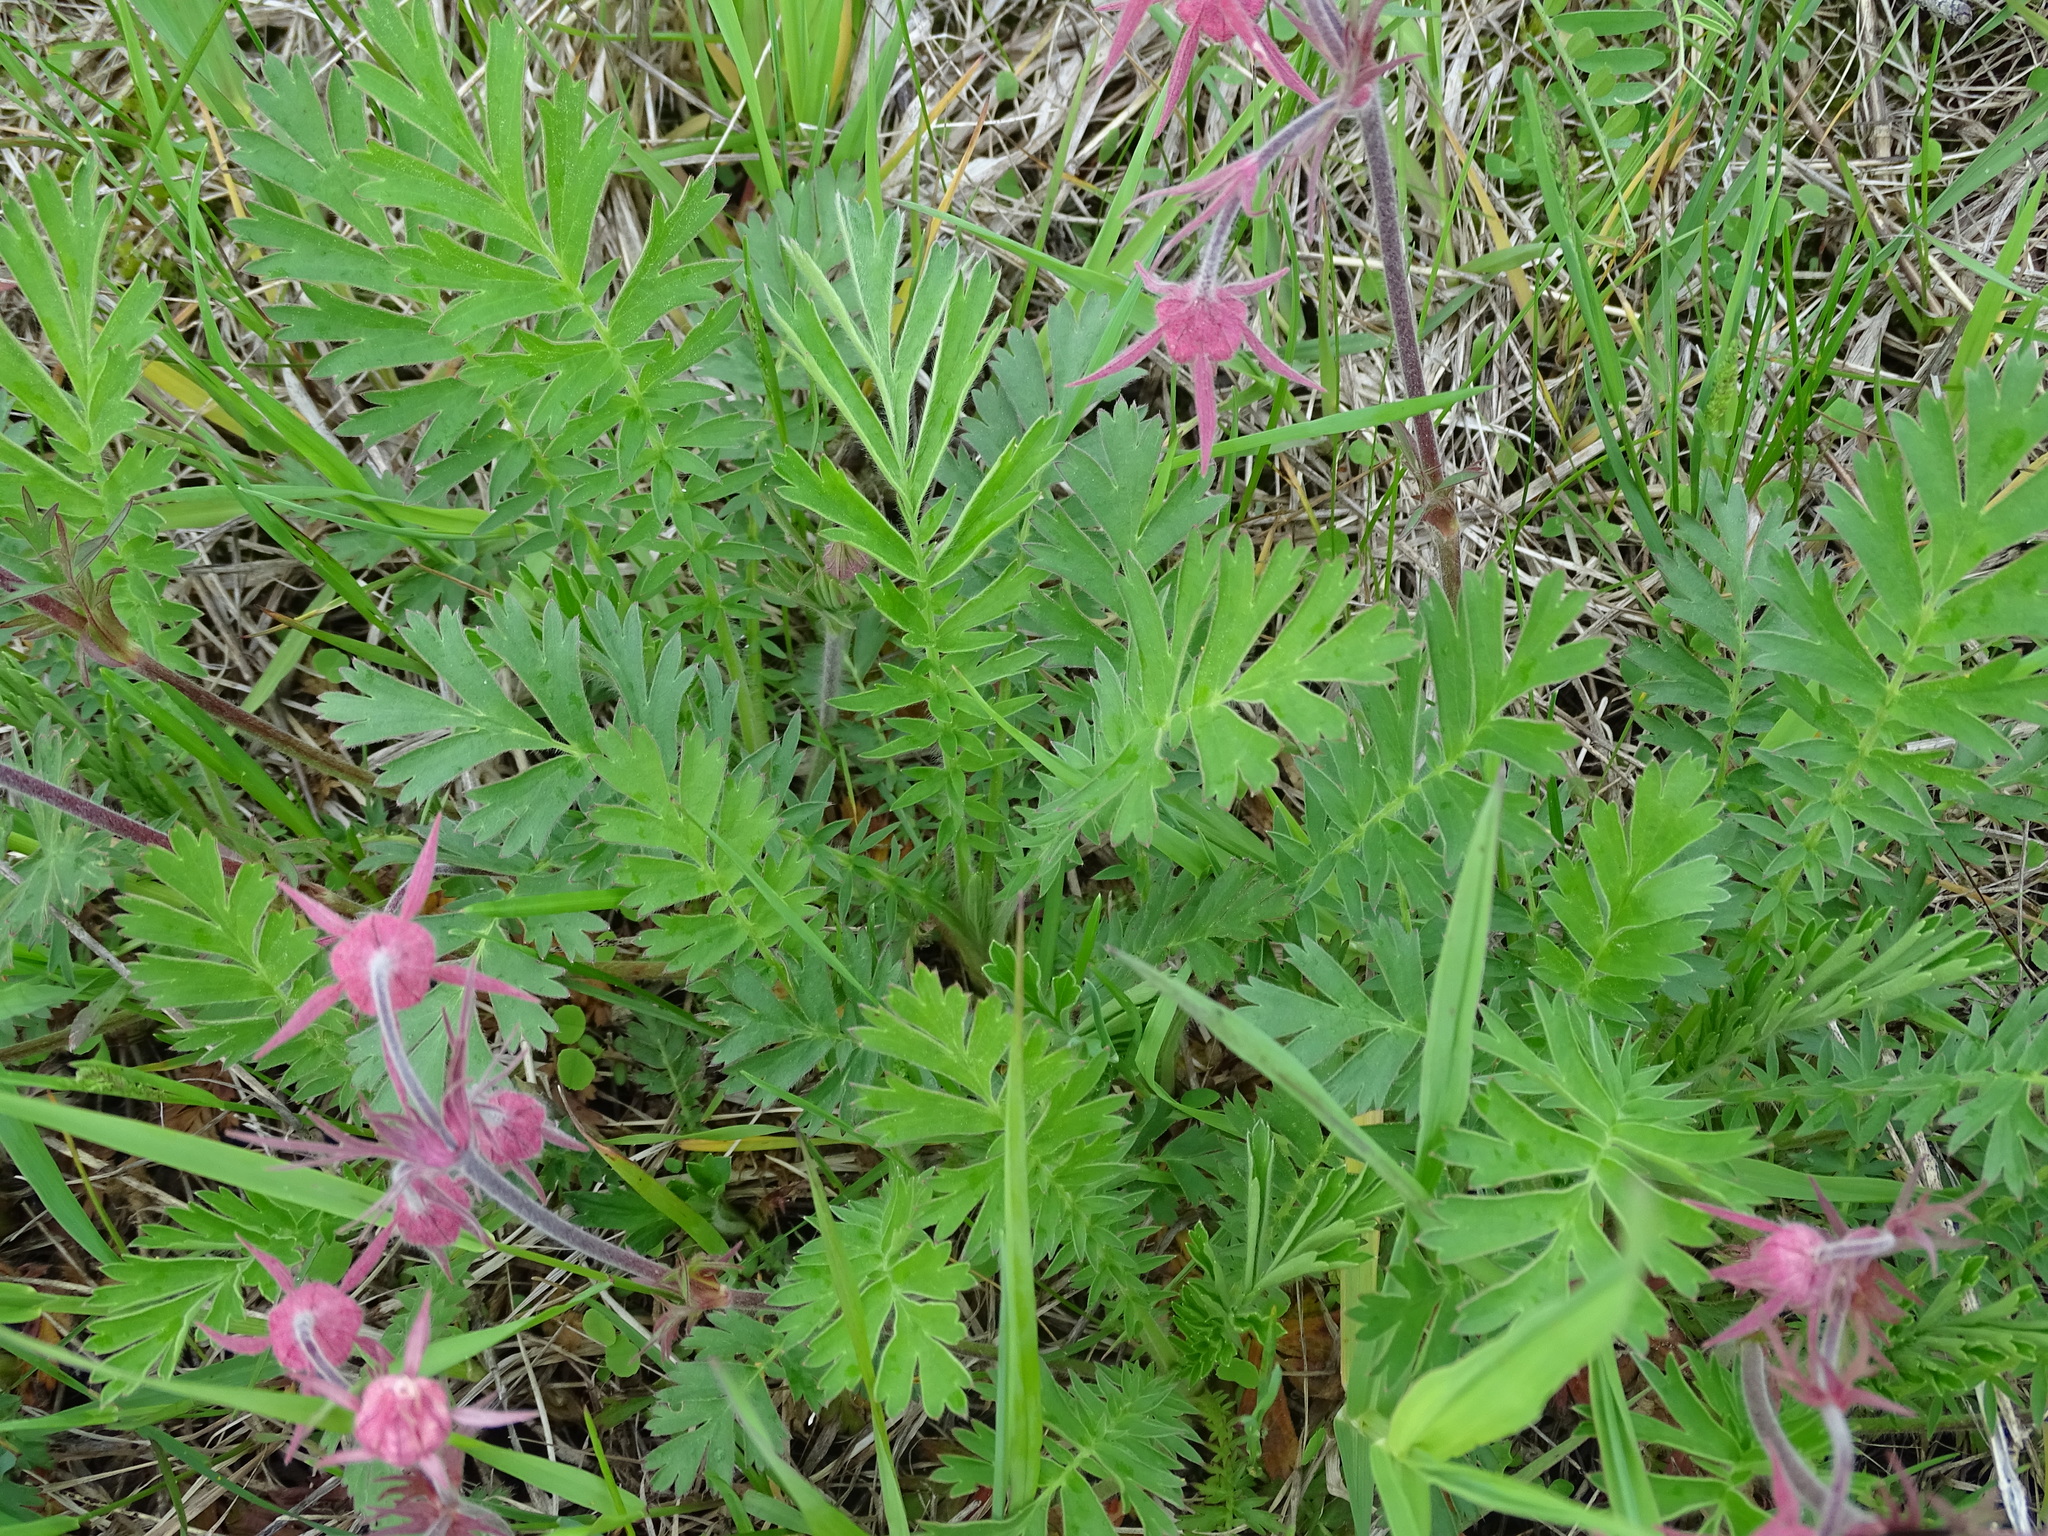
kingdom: Plantae
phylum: Tracheophyta
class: Magnoliopsida
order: Rosales
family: Rosaceae
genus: Geum
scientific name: Geum triflorum
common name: Old man's whiskers
